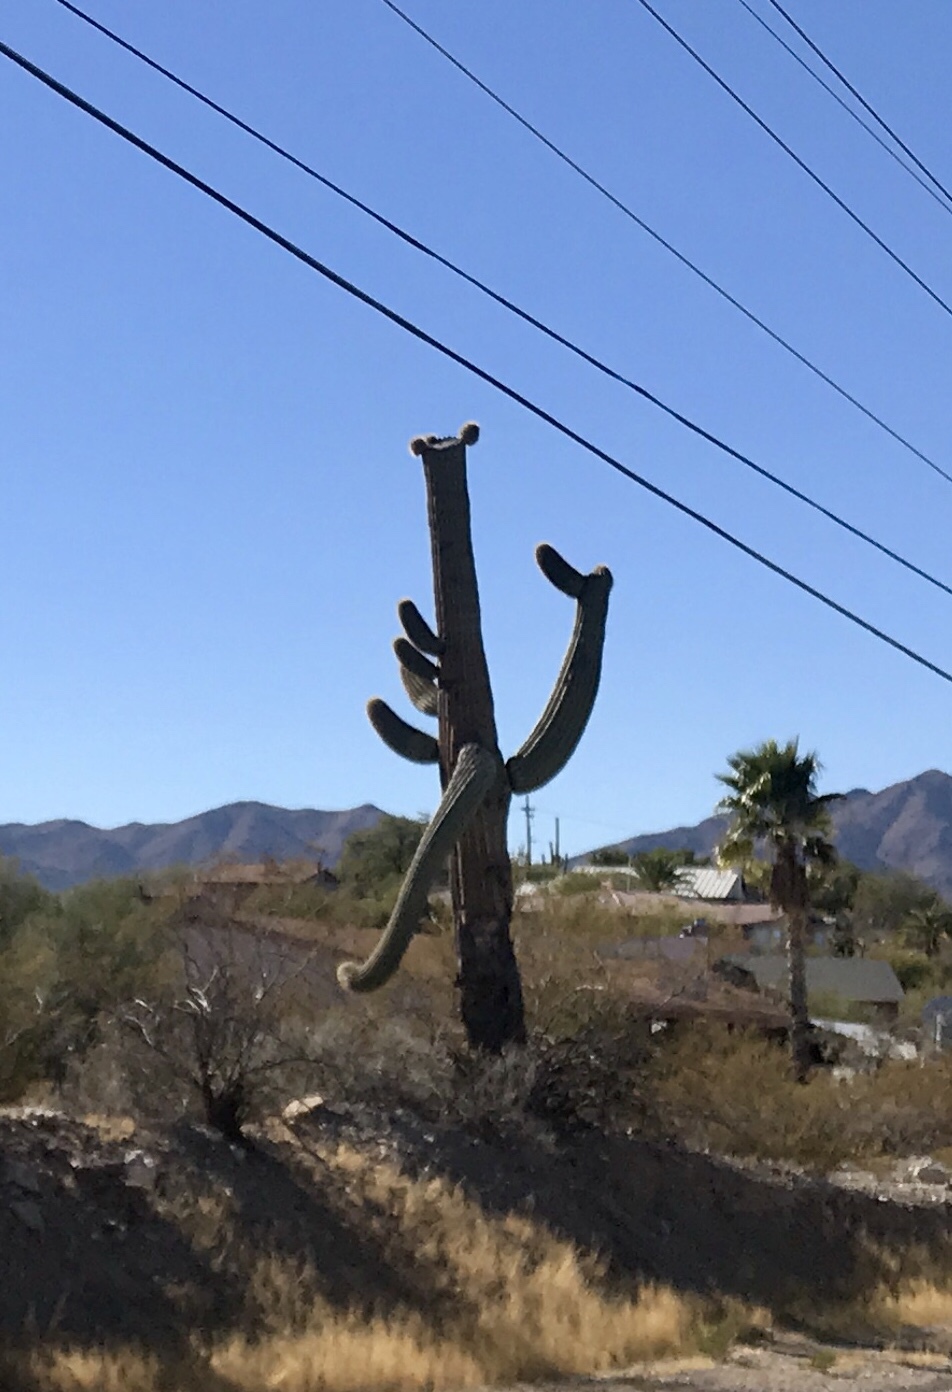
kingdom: Plantae
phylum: Tracheophyta
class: Magnoliopsida
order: Caryophyllales
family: Cactaceae
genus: Carnegiea
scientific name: Carnegiea gigantea
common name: Saguaro
